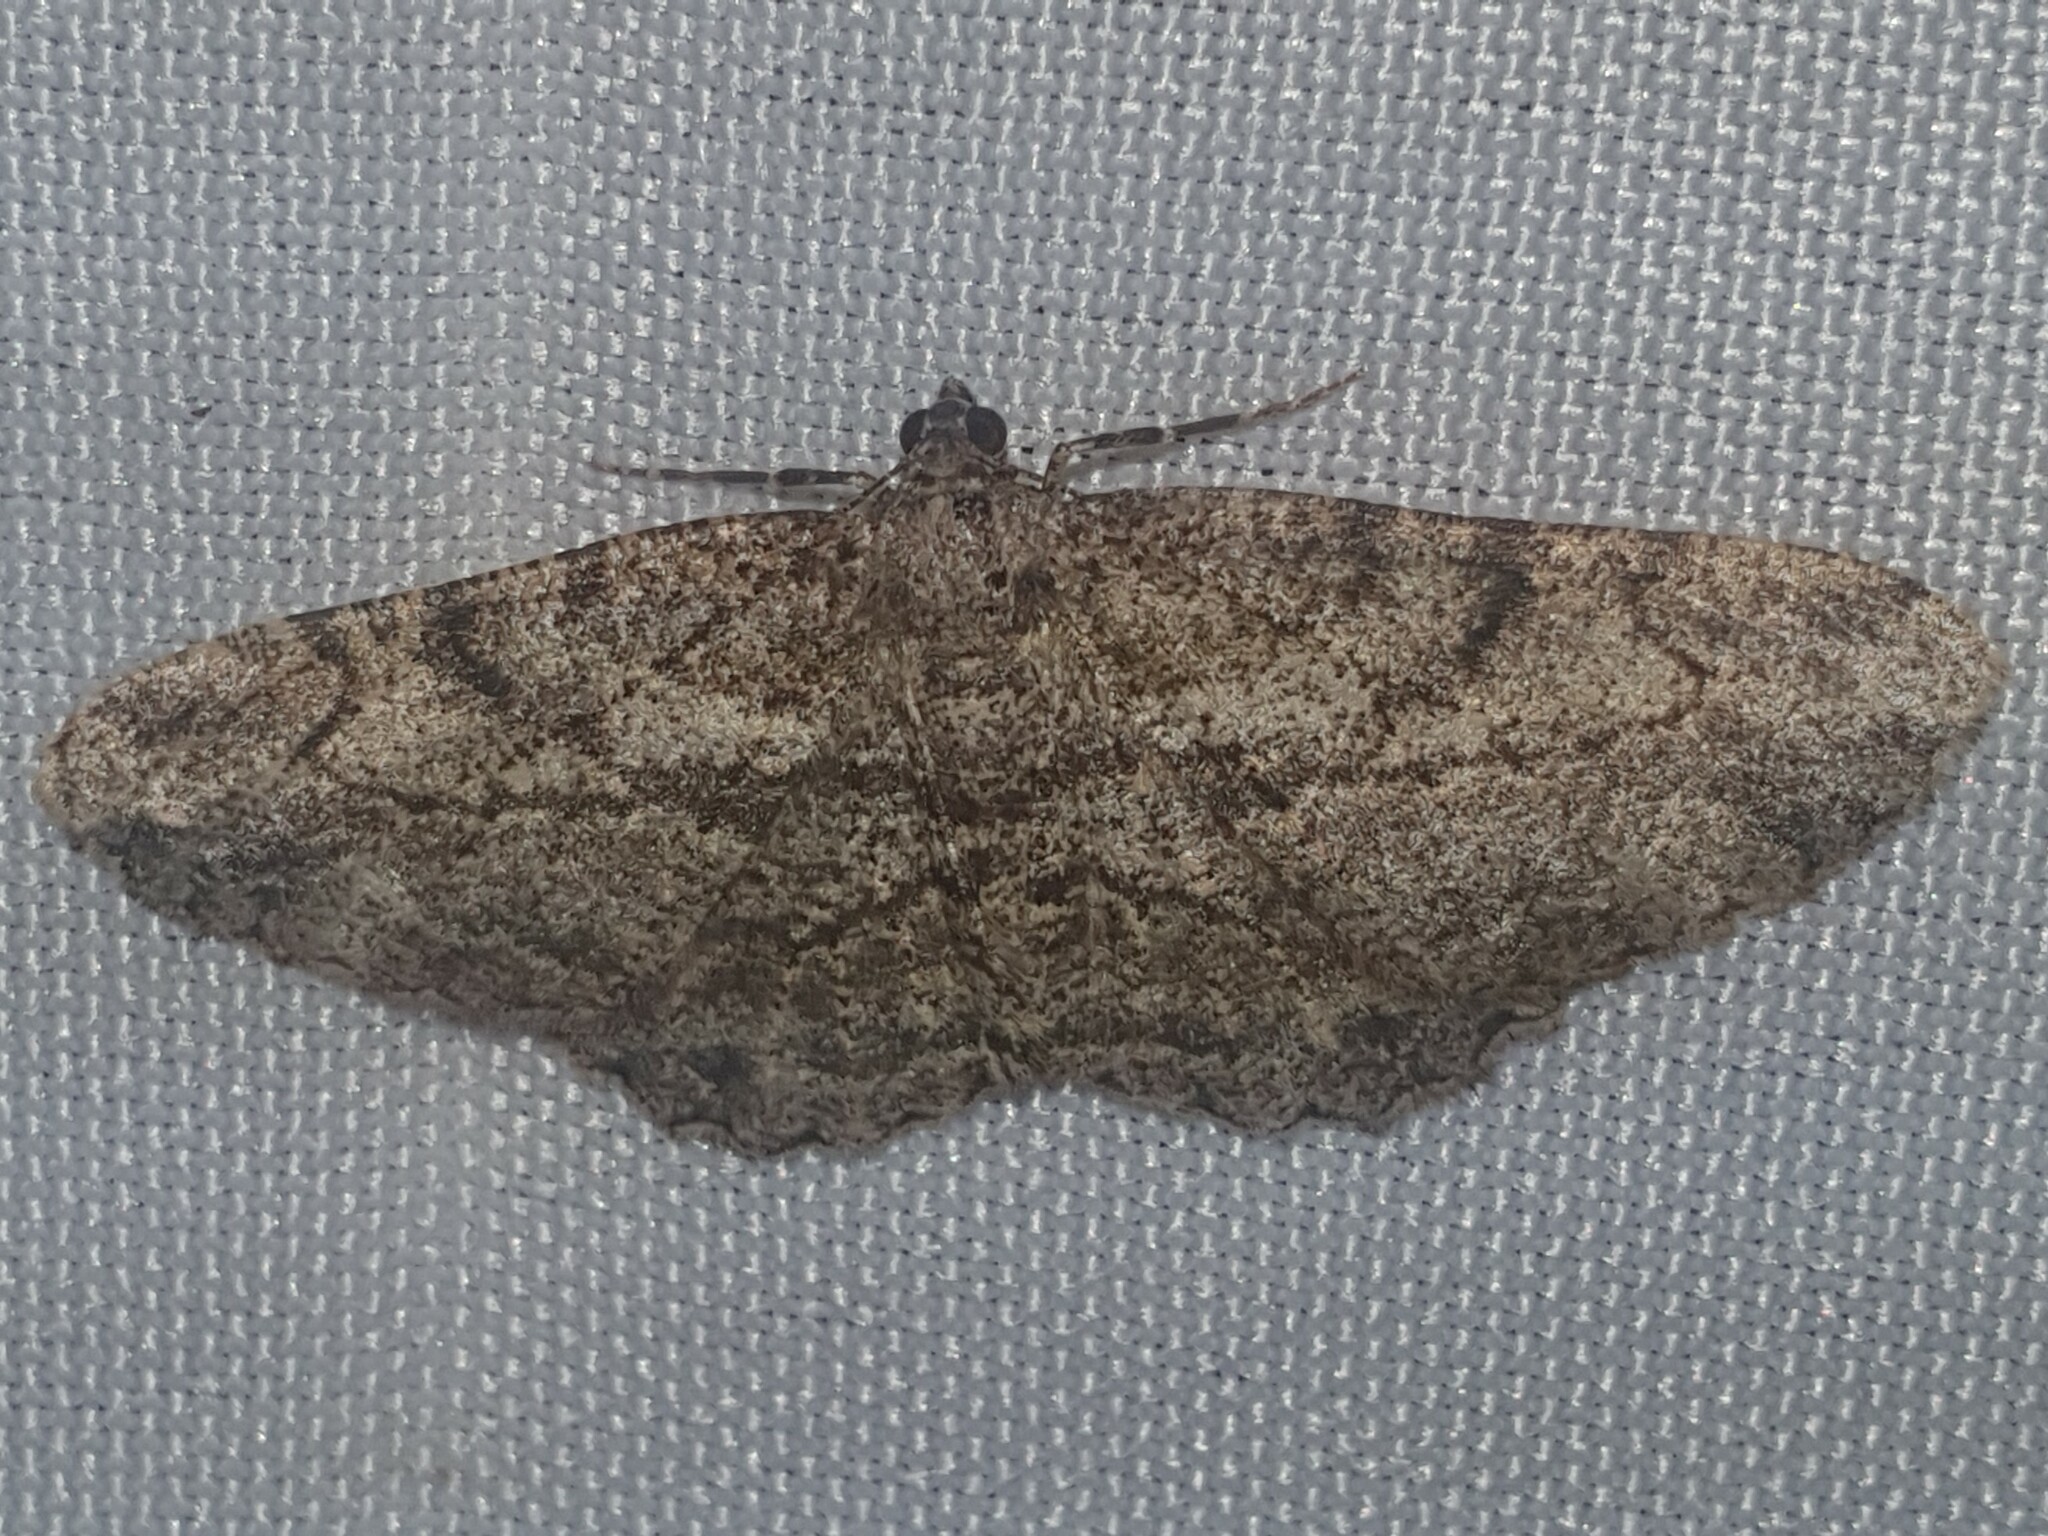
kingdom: Animalia
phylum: Arthropoda
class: Insecta
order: Lepidoptera
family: Geometridae
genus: Peribatodes
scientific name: Peribatodes rhomboidaria
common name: Willow beauty
